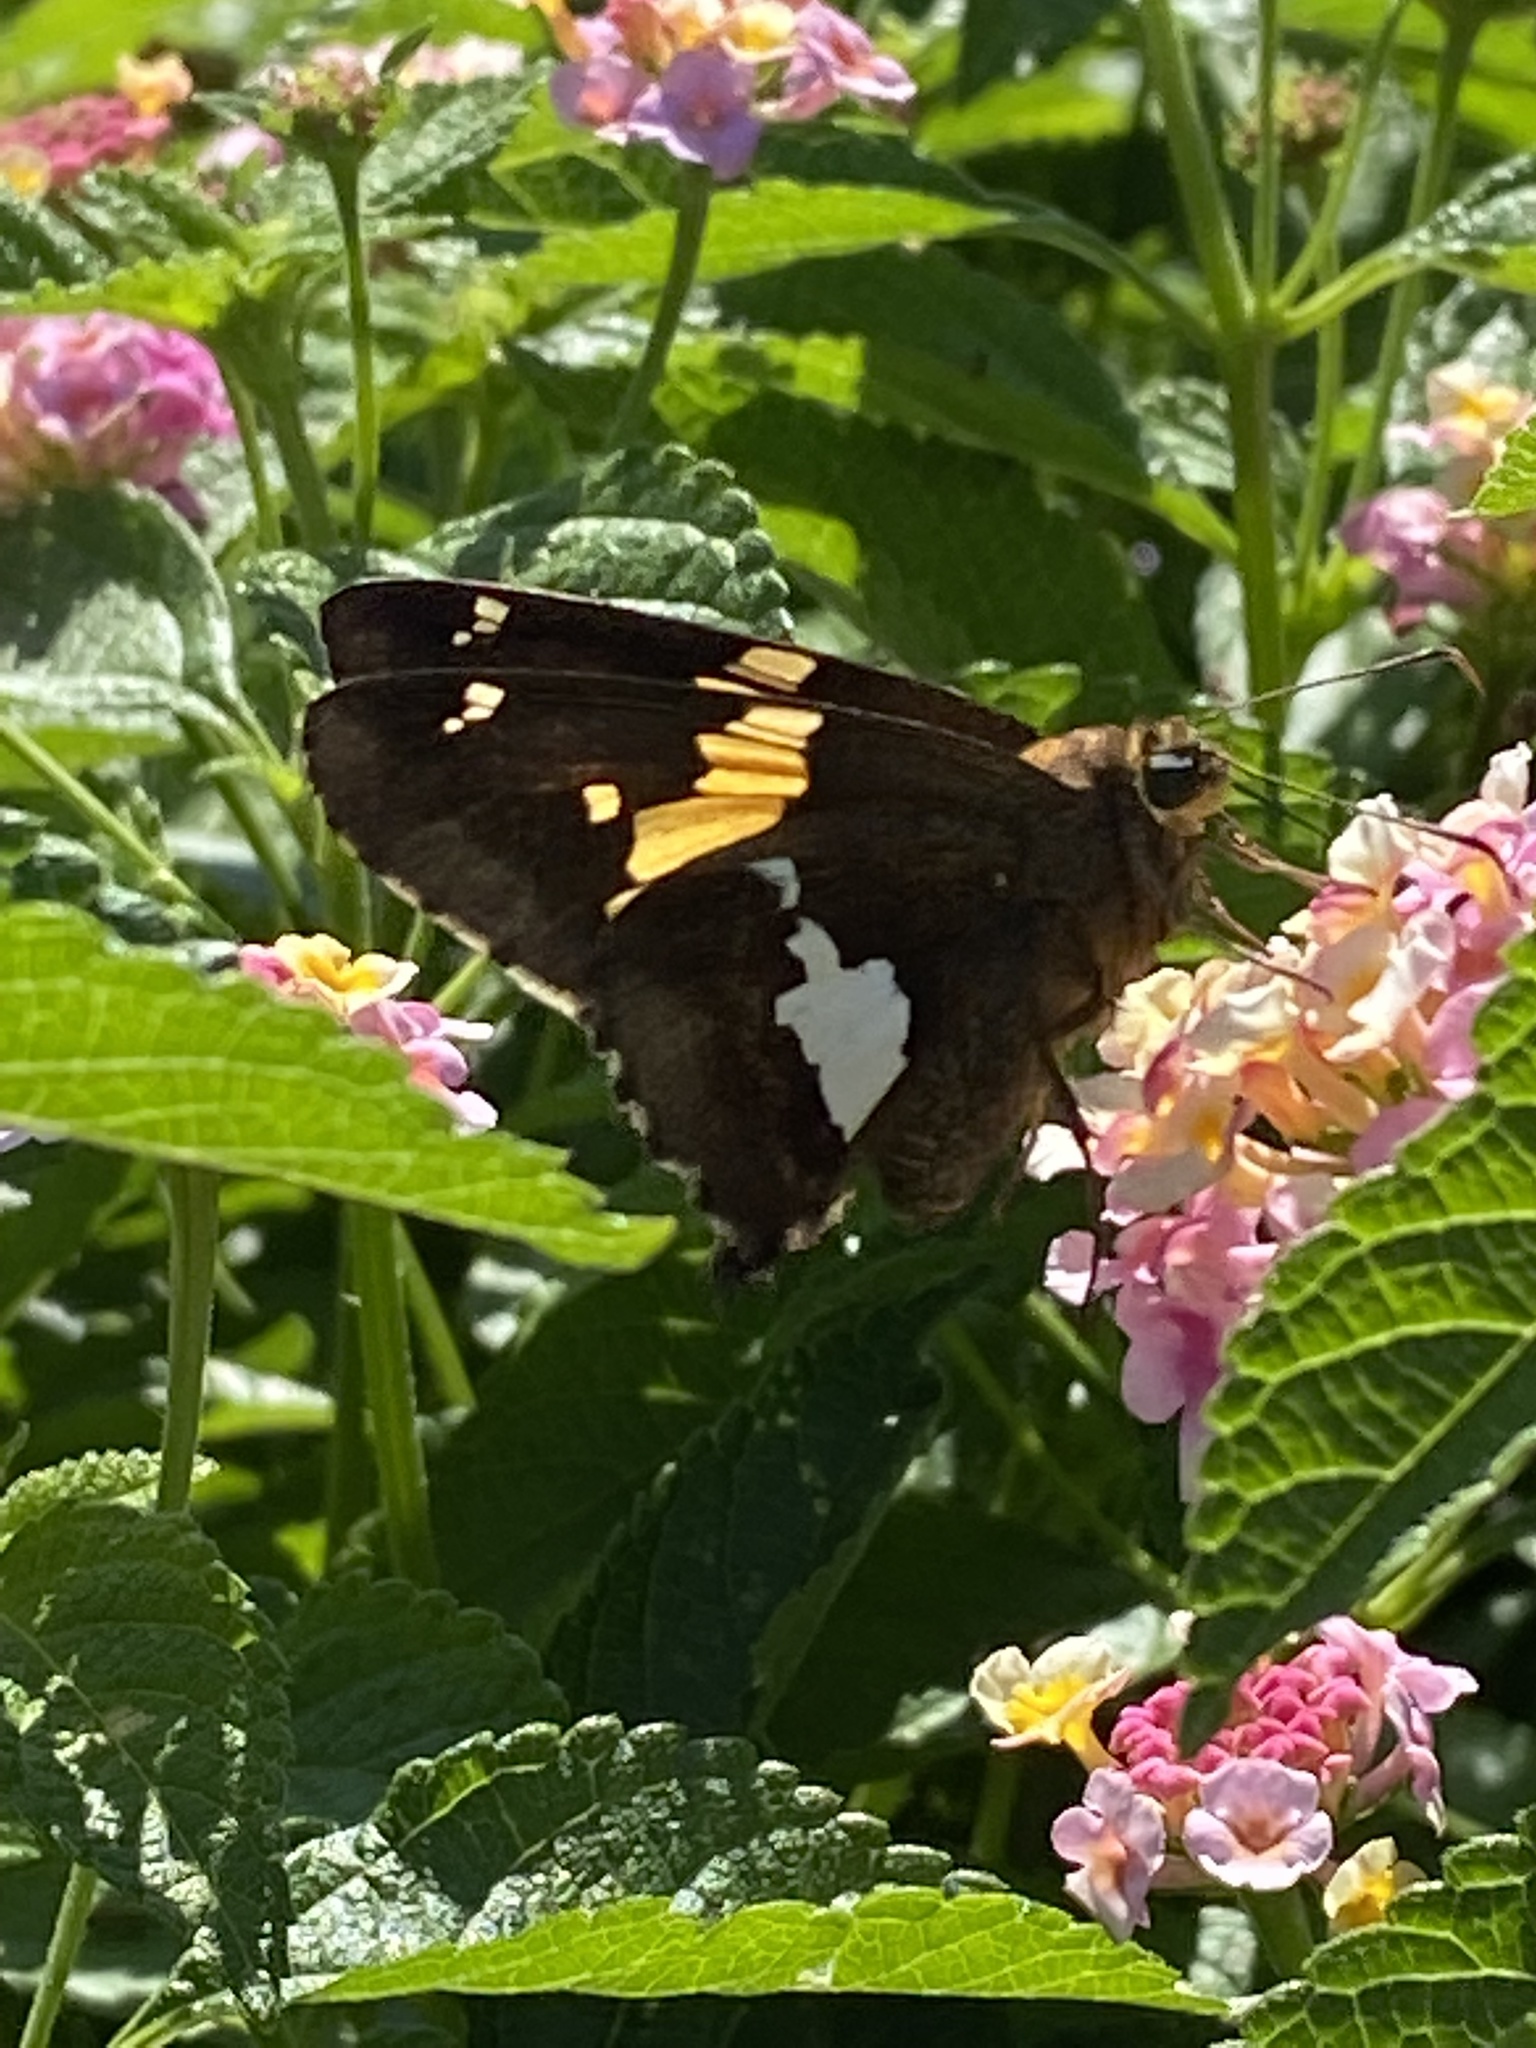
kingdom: Animalia
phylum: Arthropoda
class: Insecta
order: Lepidoptera
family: Hesperiidae
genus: Epargyreus
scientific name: Epargyreus clarus
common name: Silver-spotted skipper
